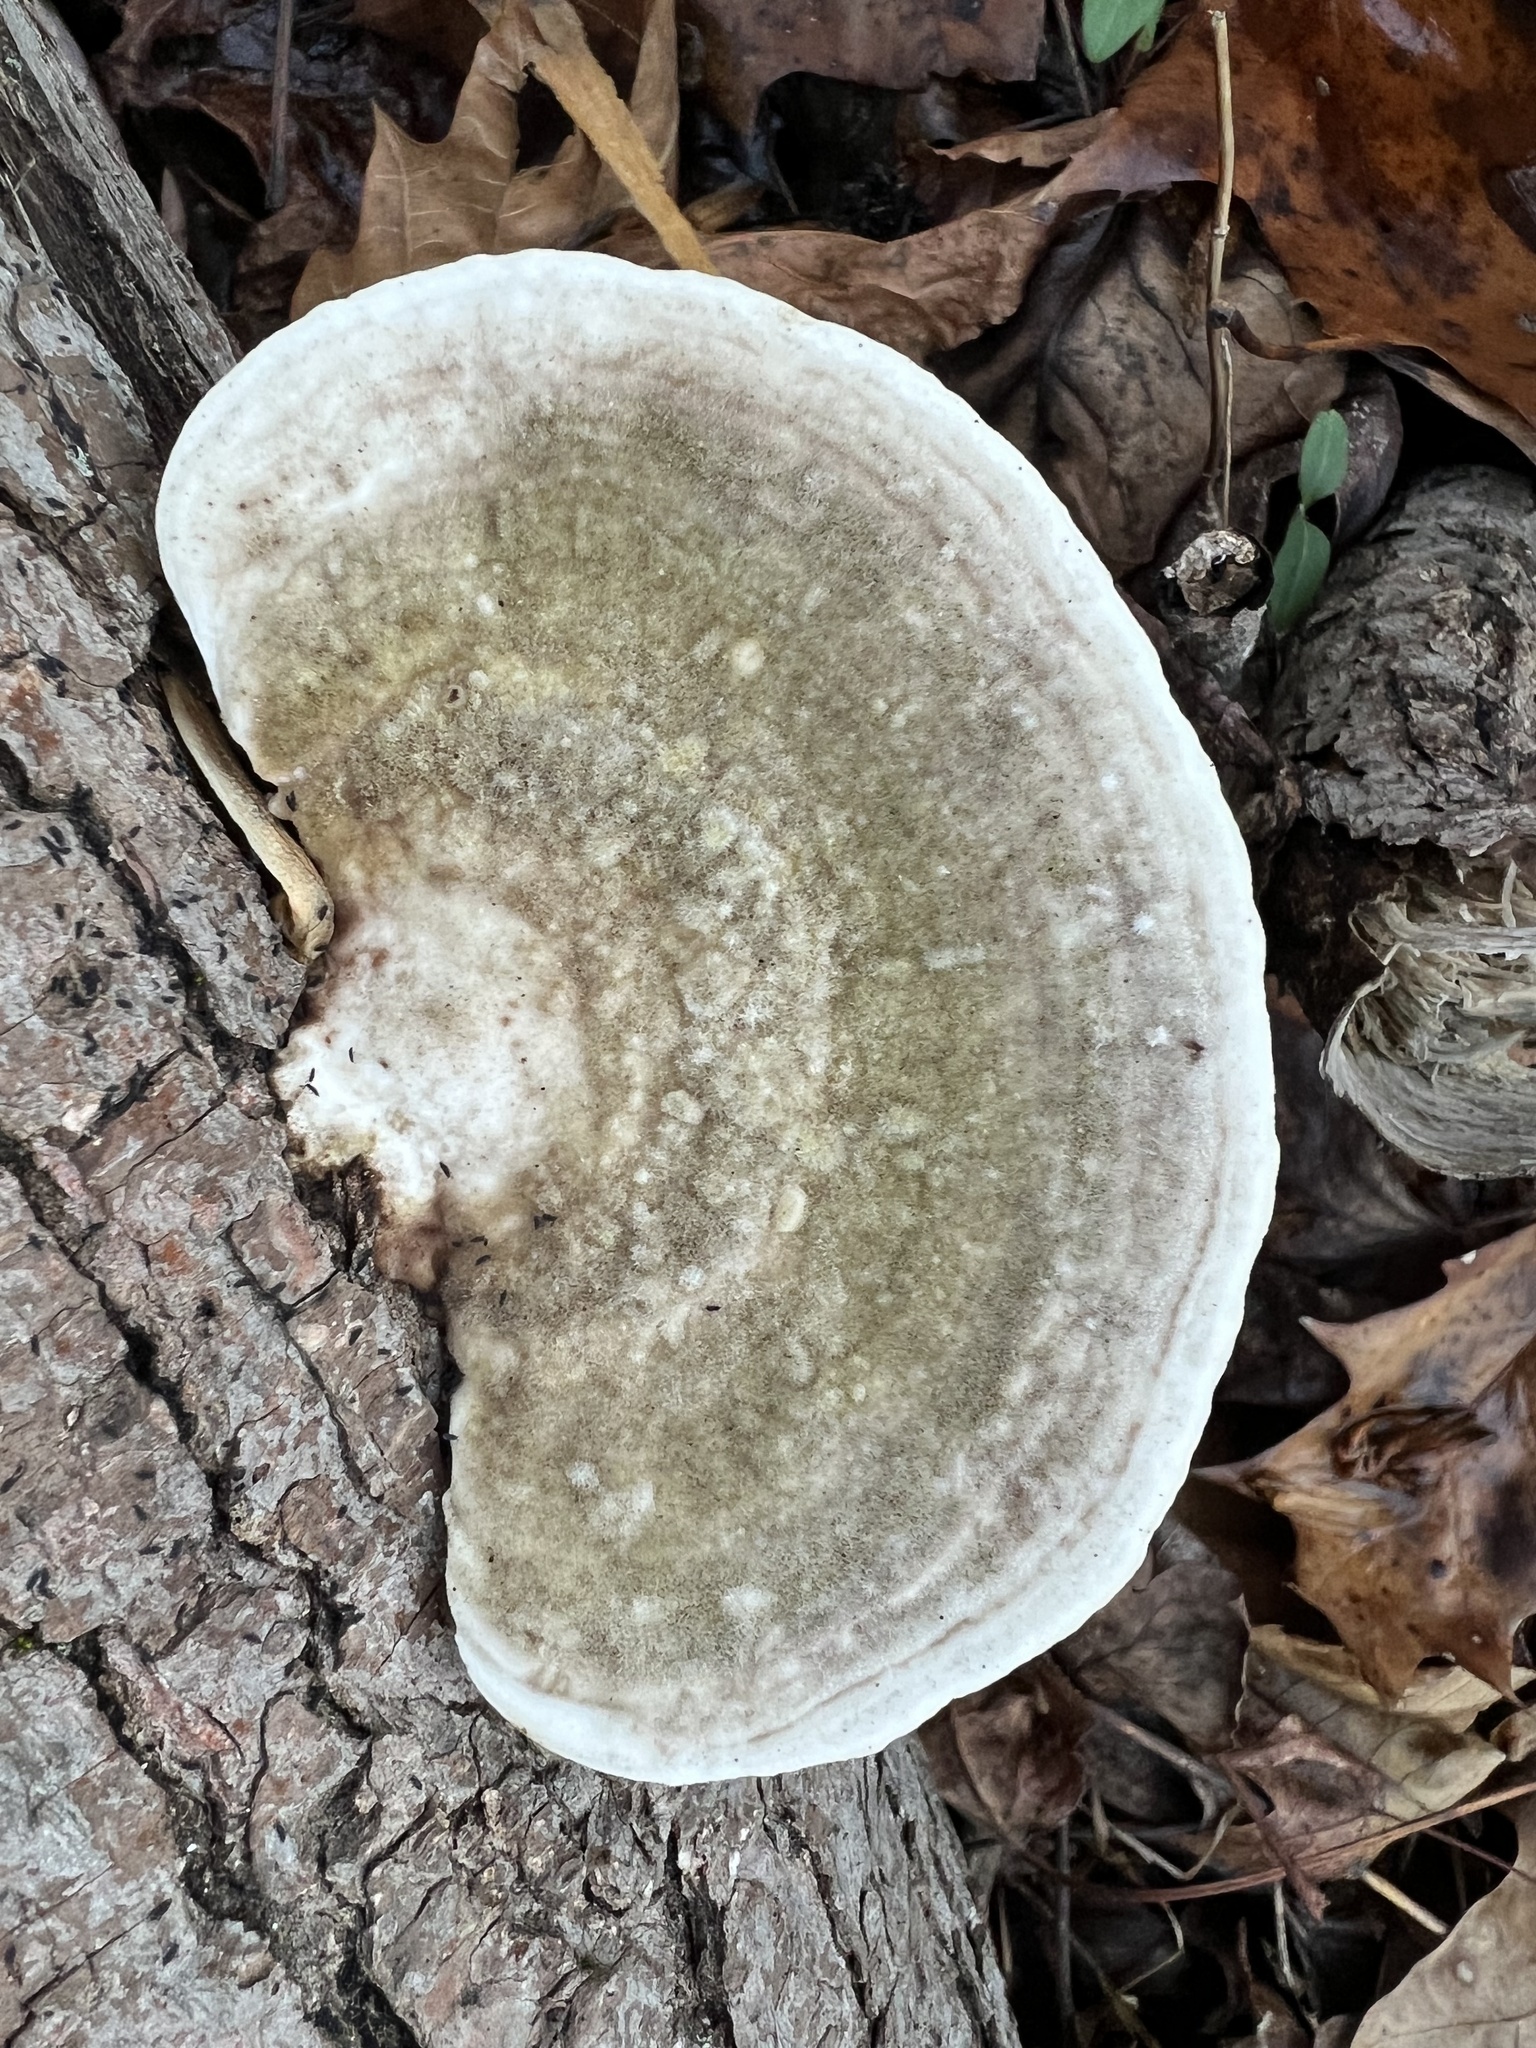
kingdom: Fungi
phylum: Basidiomycota
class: Agaricomycetes
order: Polyporales
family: Polyporaceae
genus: Trametes
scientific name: Trametes gibbosa
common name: Lumpy bracket
